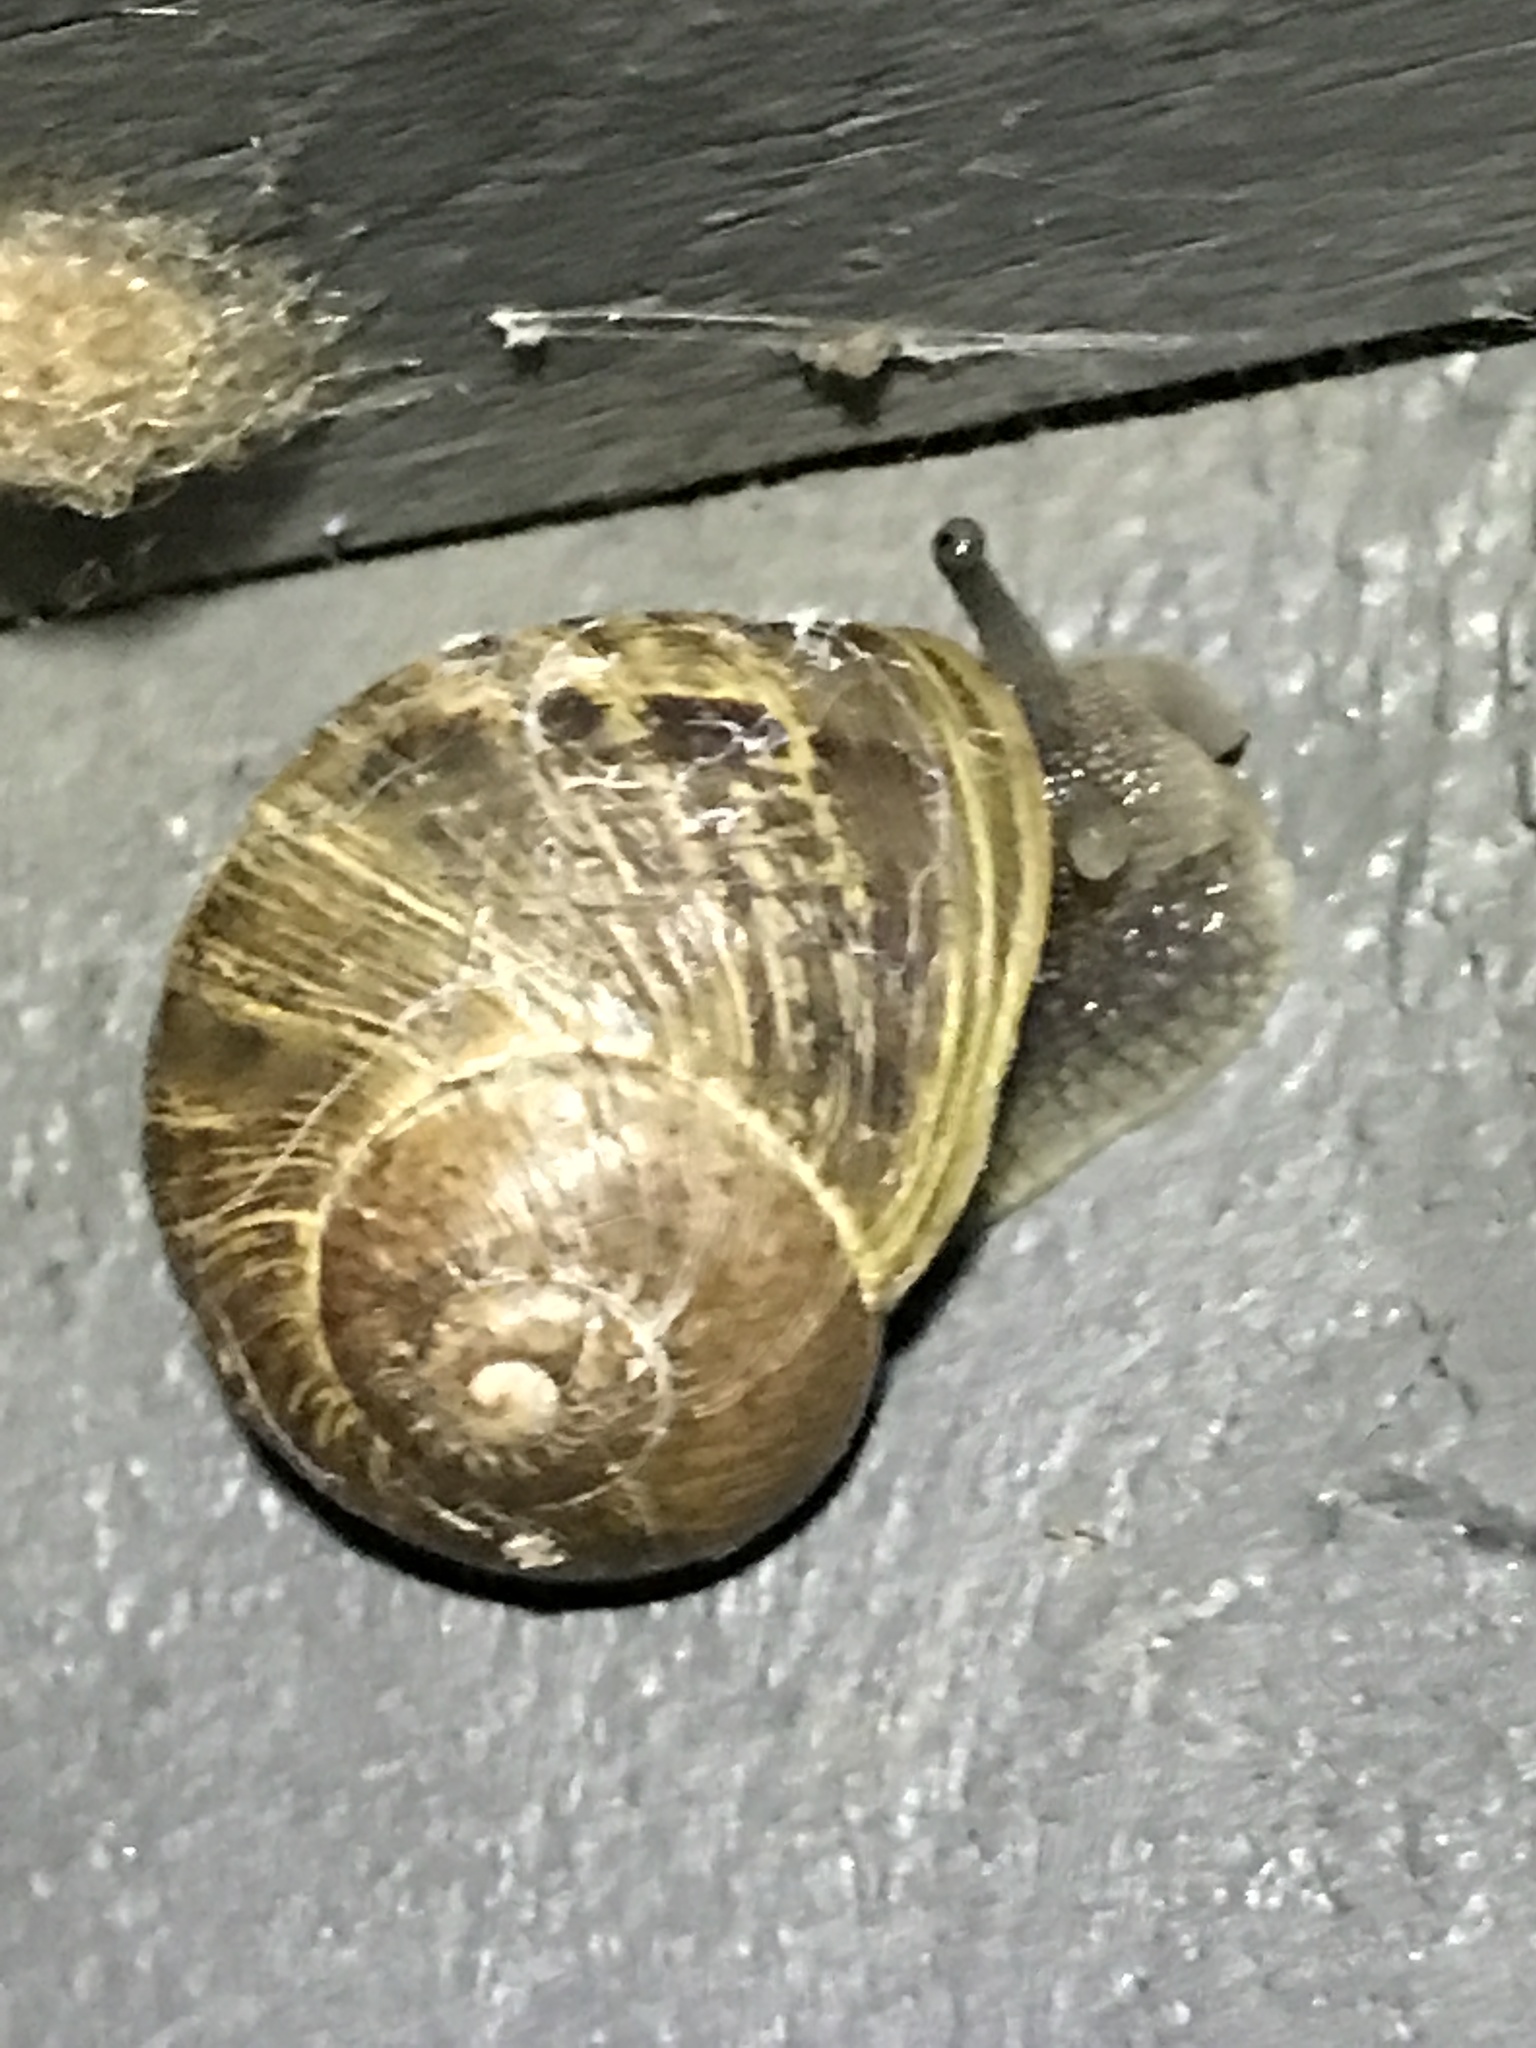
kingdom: Animalia
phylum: Mollusca
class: Gastropoda
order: Stylommatophora
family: Helicidae
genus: Cornu
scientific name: Cornu aspersum
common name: Brown garden snail
